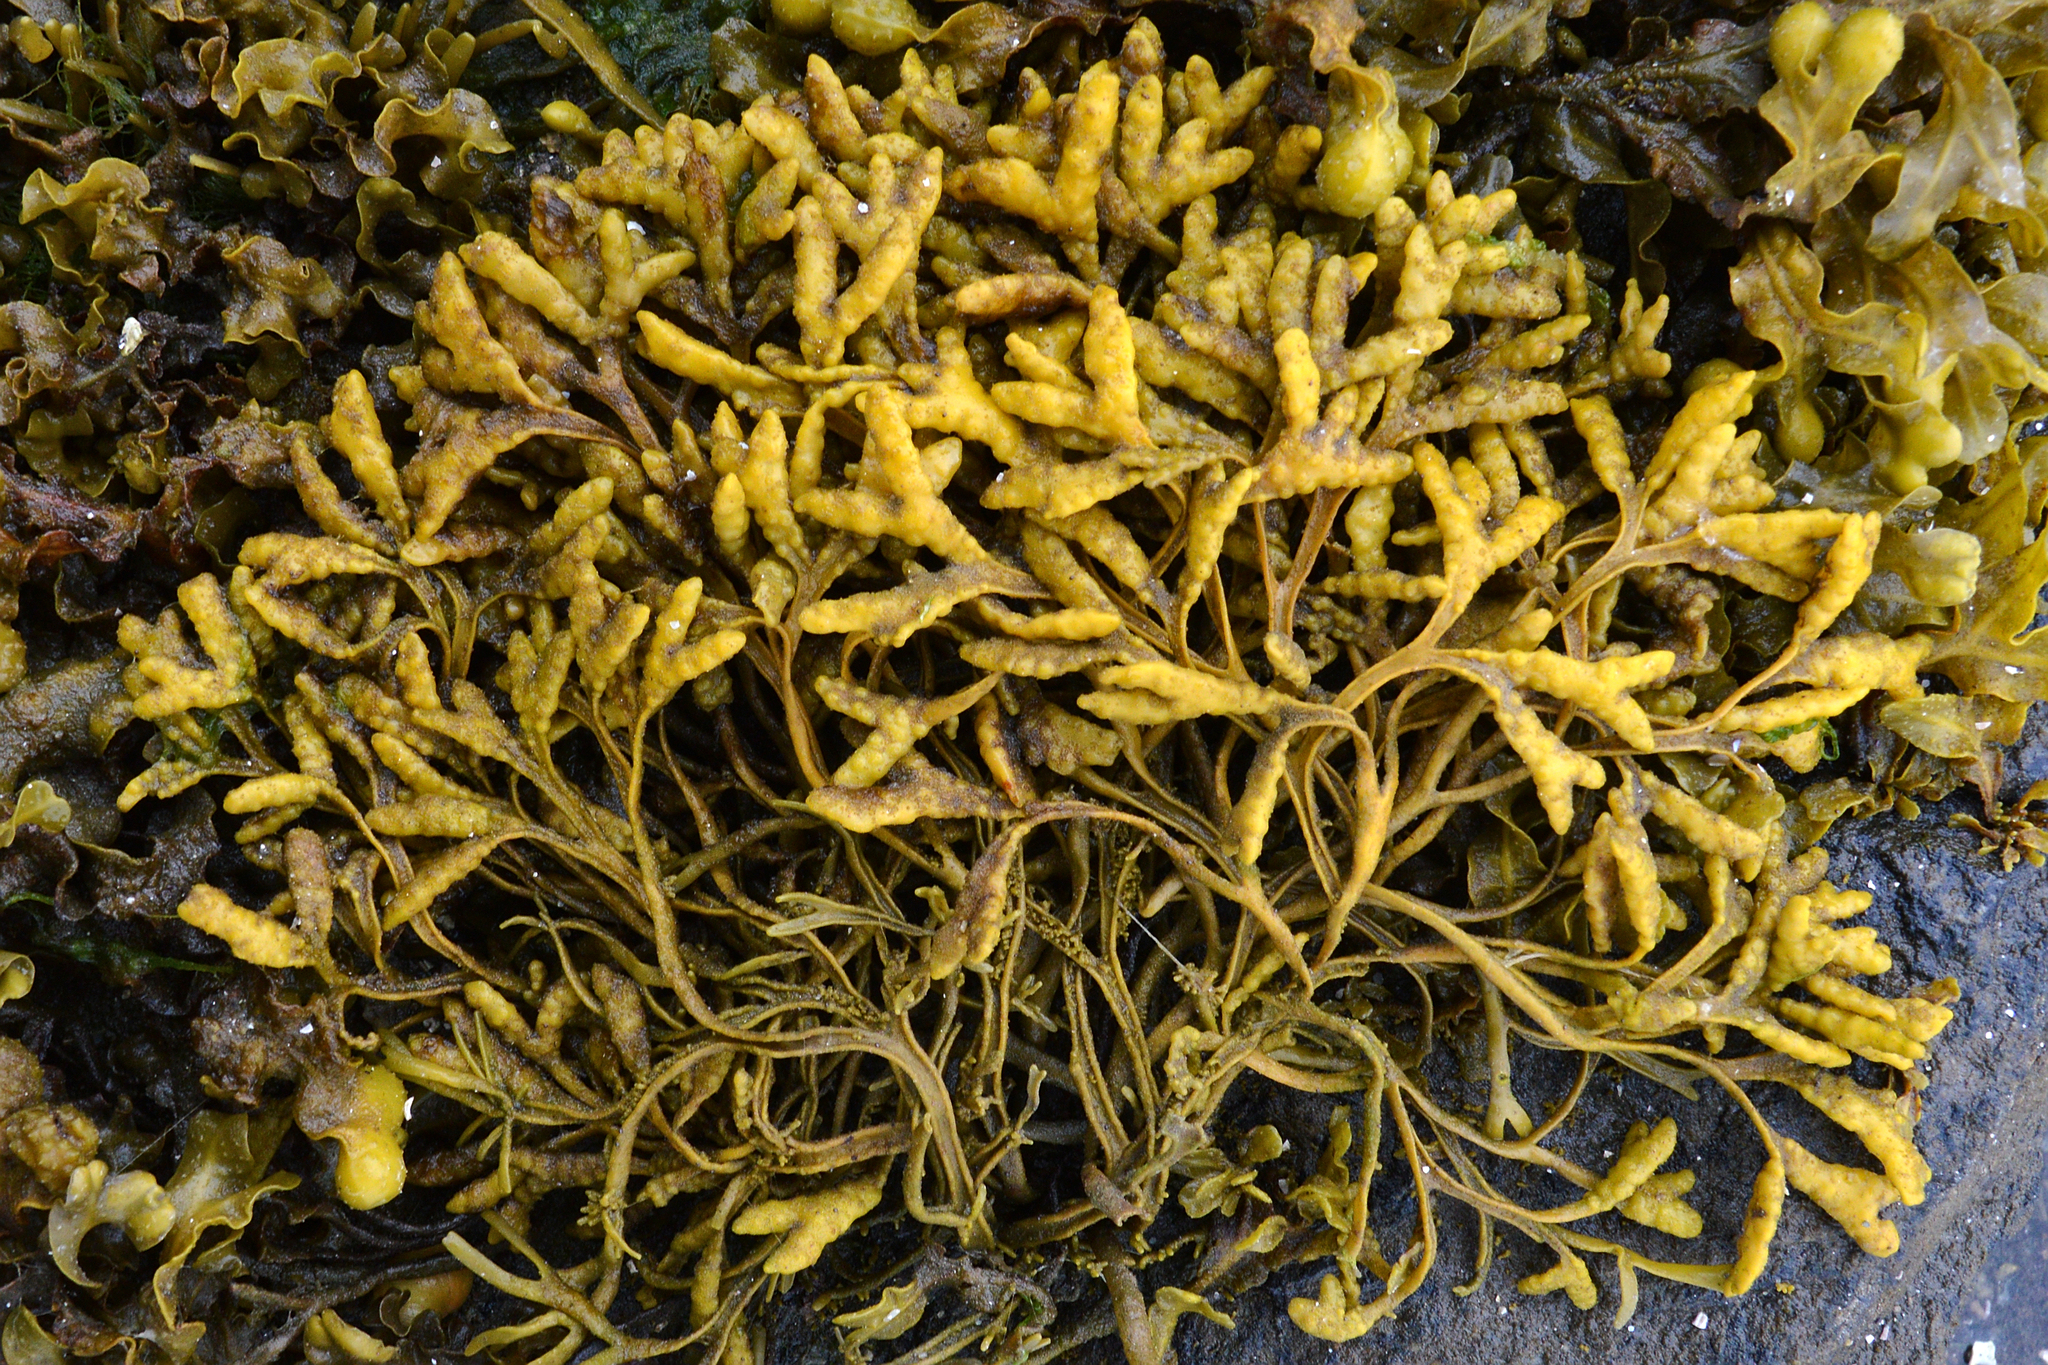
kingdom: Chromista
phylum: Ochrophyta
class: Phaeophyceae
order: Fucales
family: Fucaceae
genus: Pelvetia
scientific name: Pelvetia canaliculata
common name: Channelled wrack
